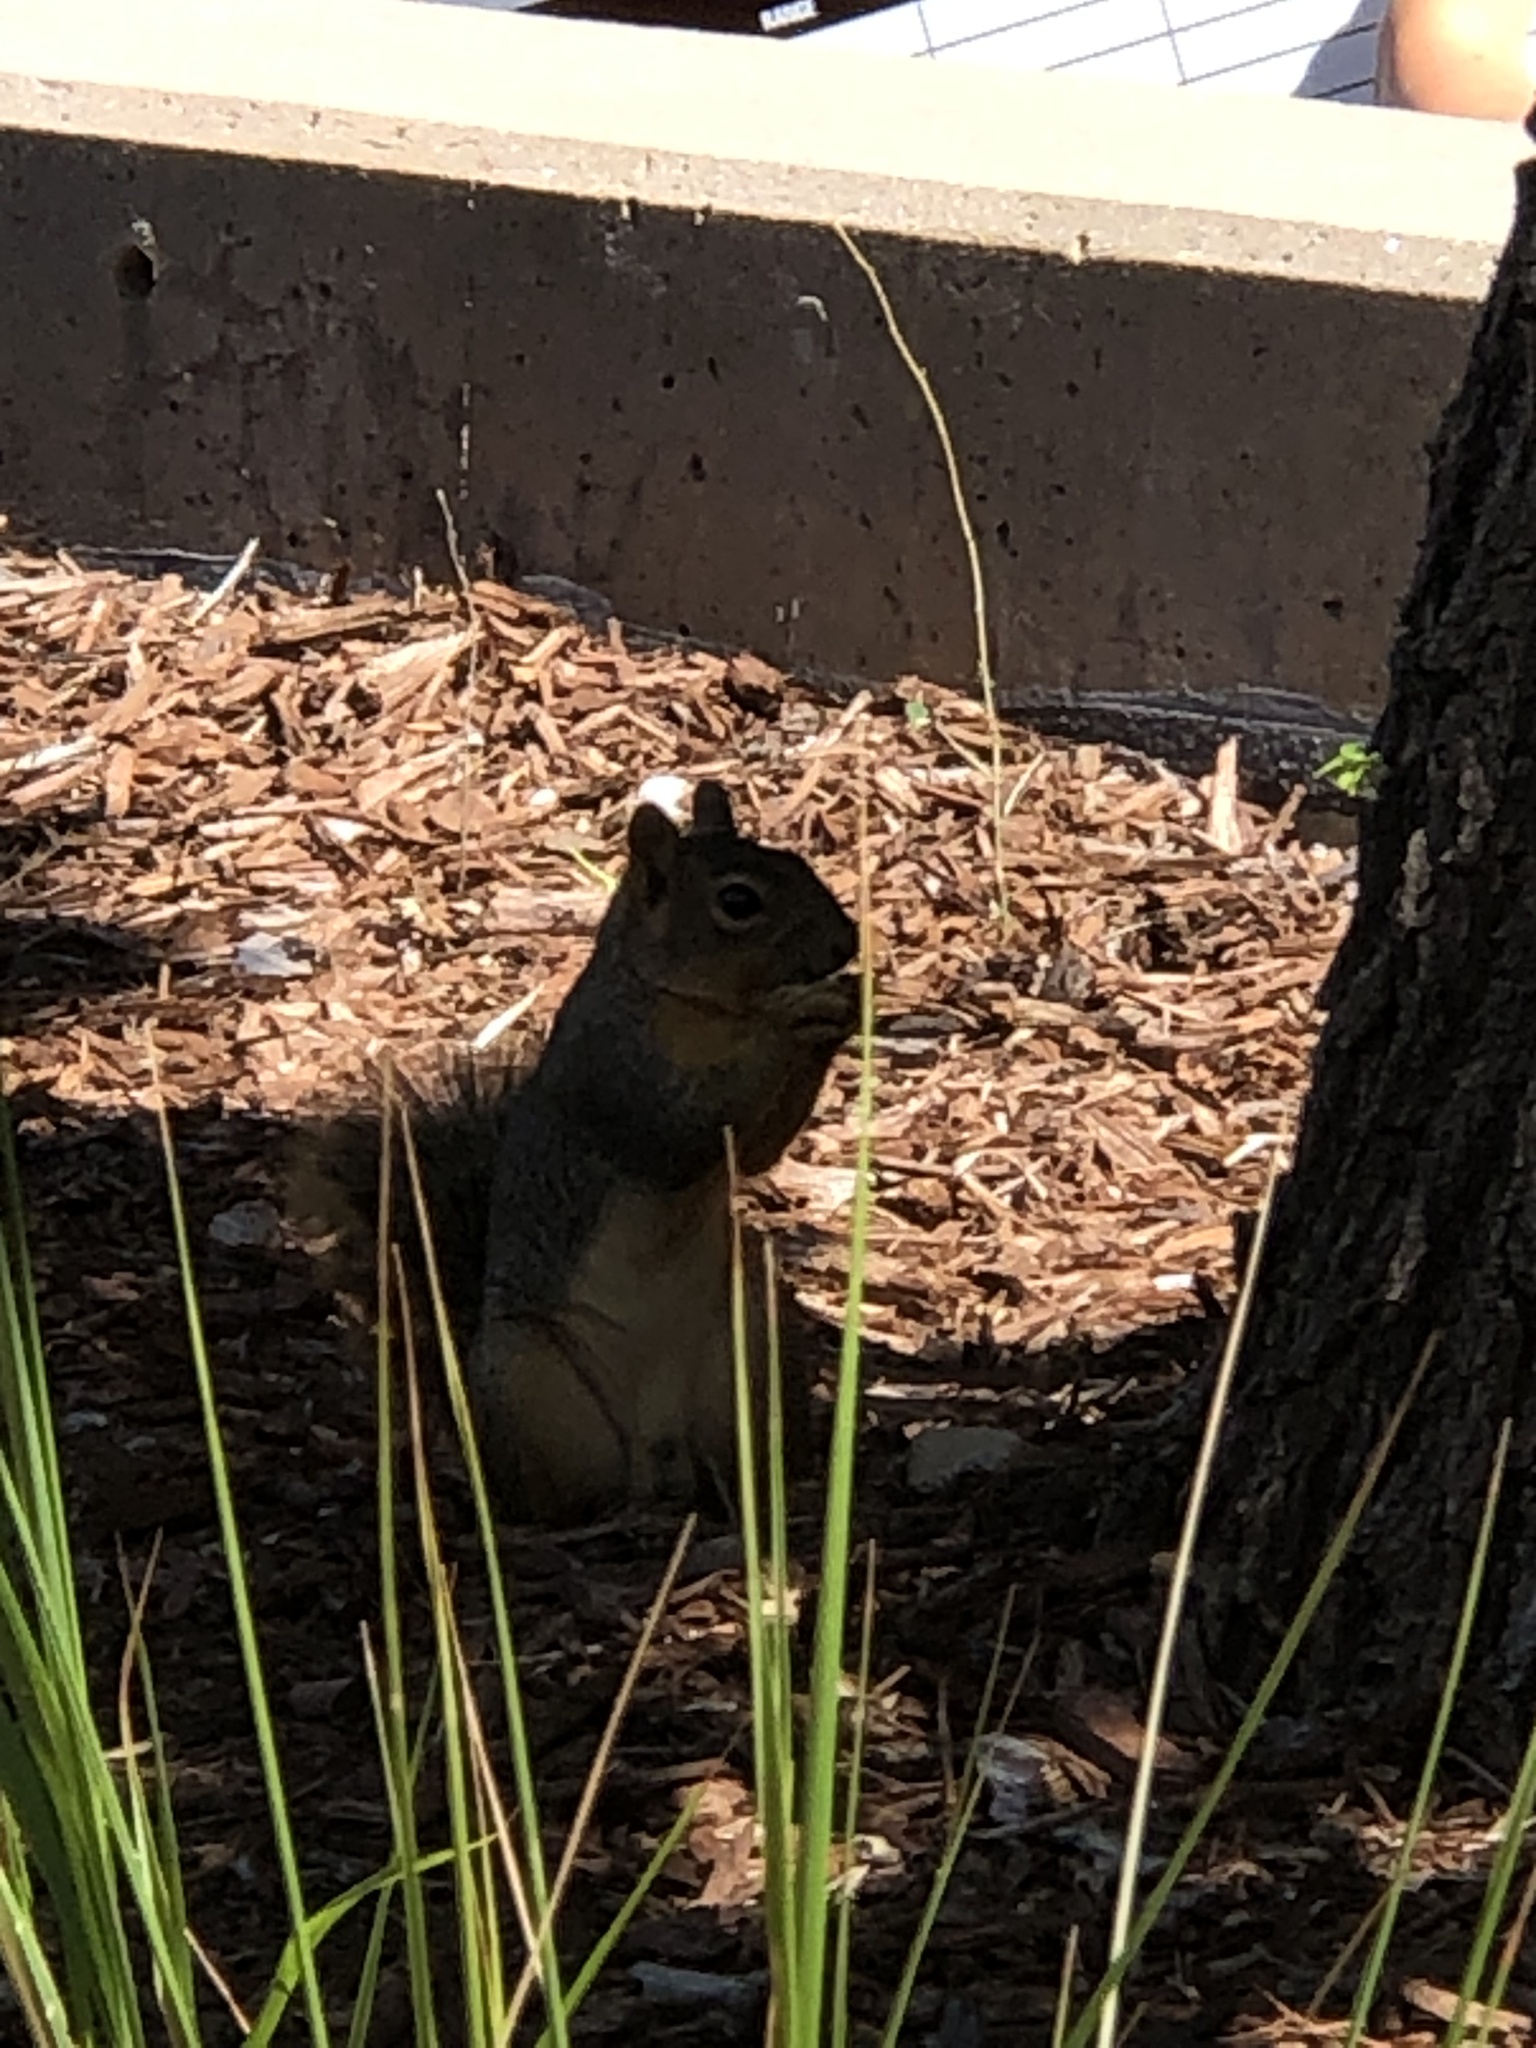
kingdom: Animalia
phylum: Chordata
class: Mammalia
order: Rodentia
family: Sciuridae
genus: Sciurus
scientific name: Sciurus niger
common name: Fox squirrel
